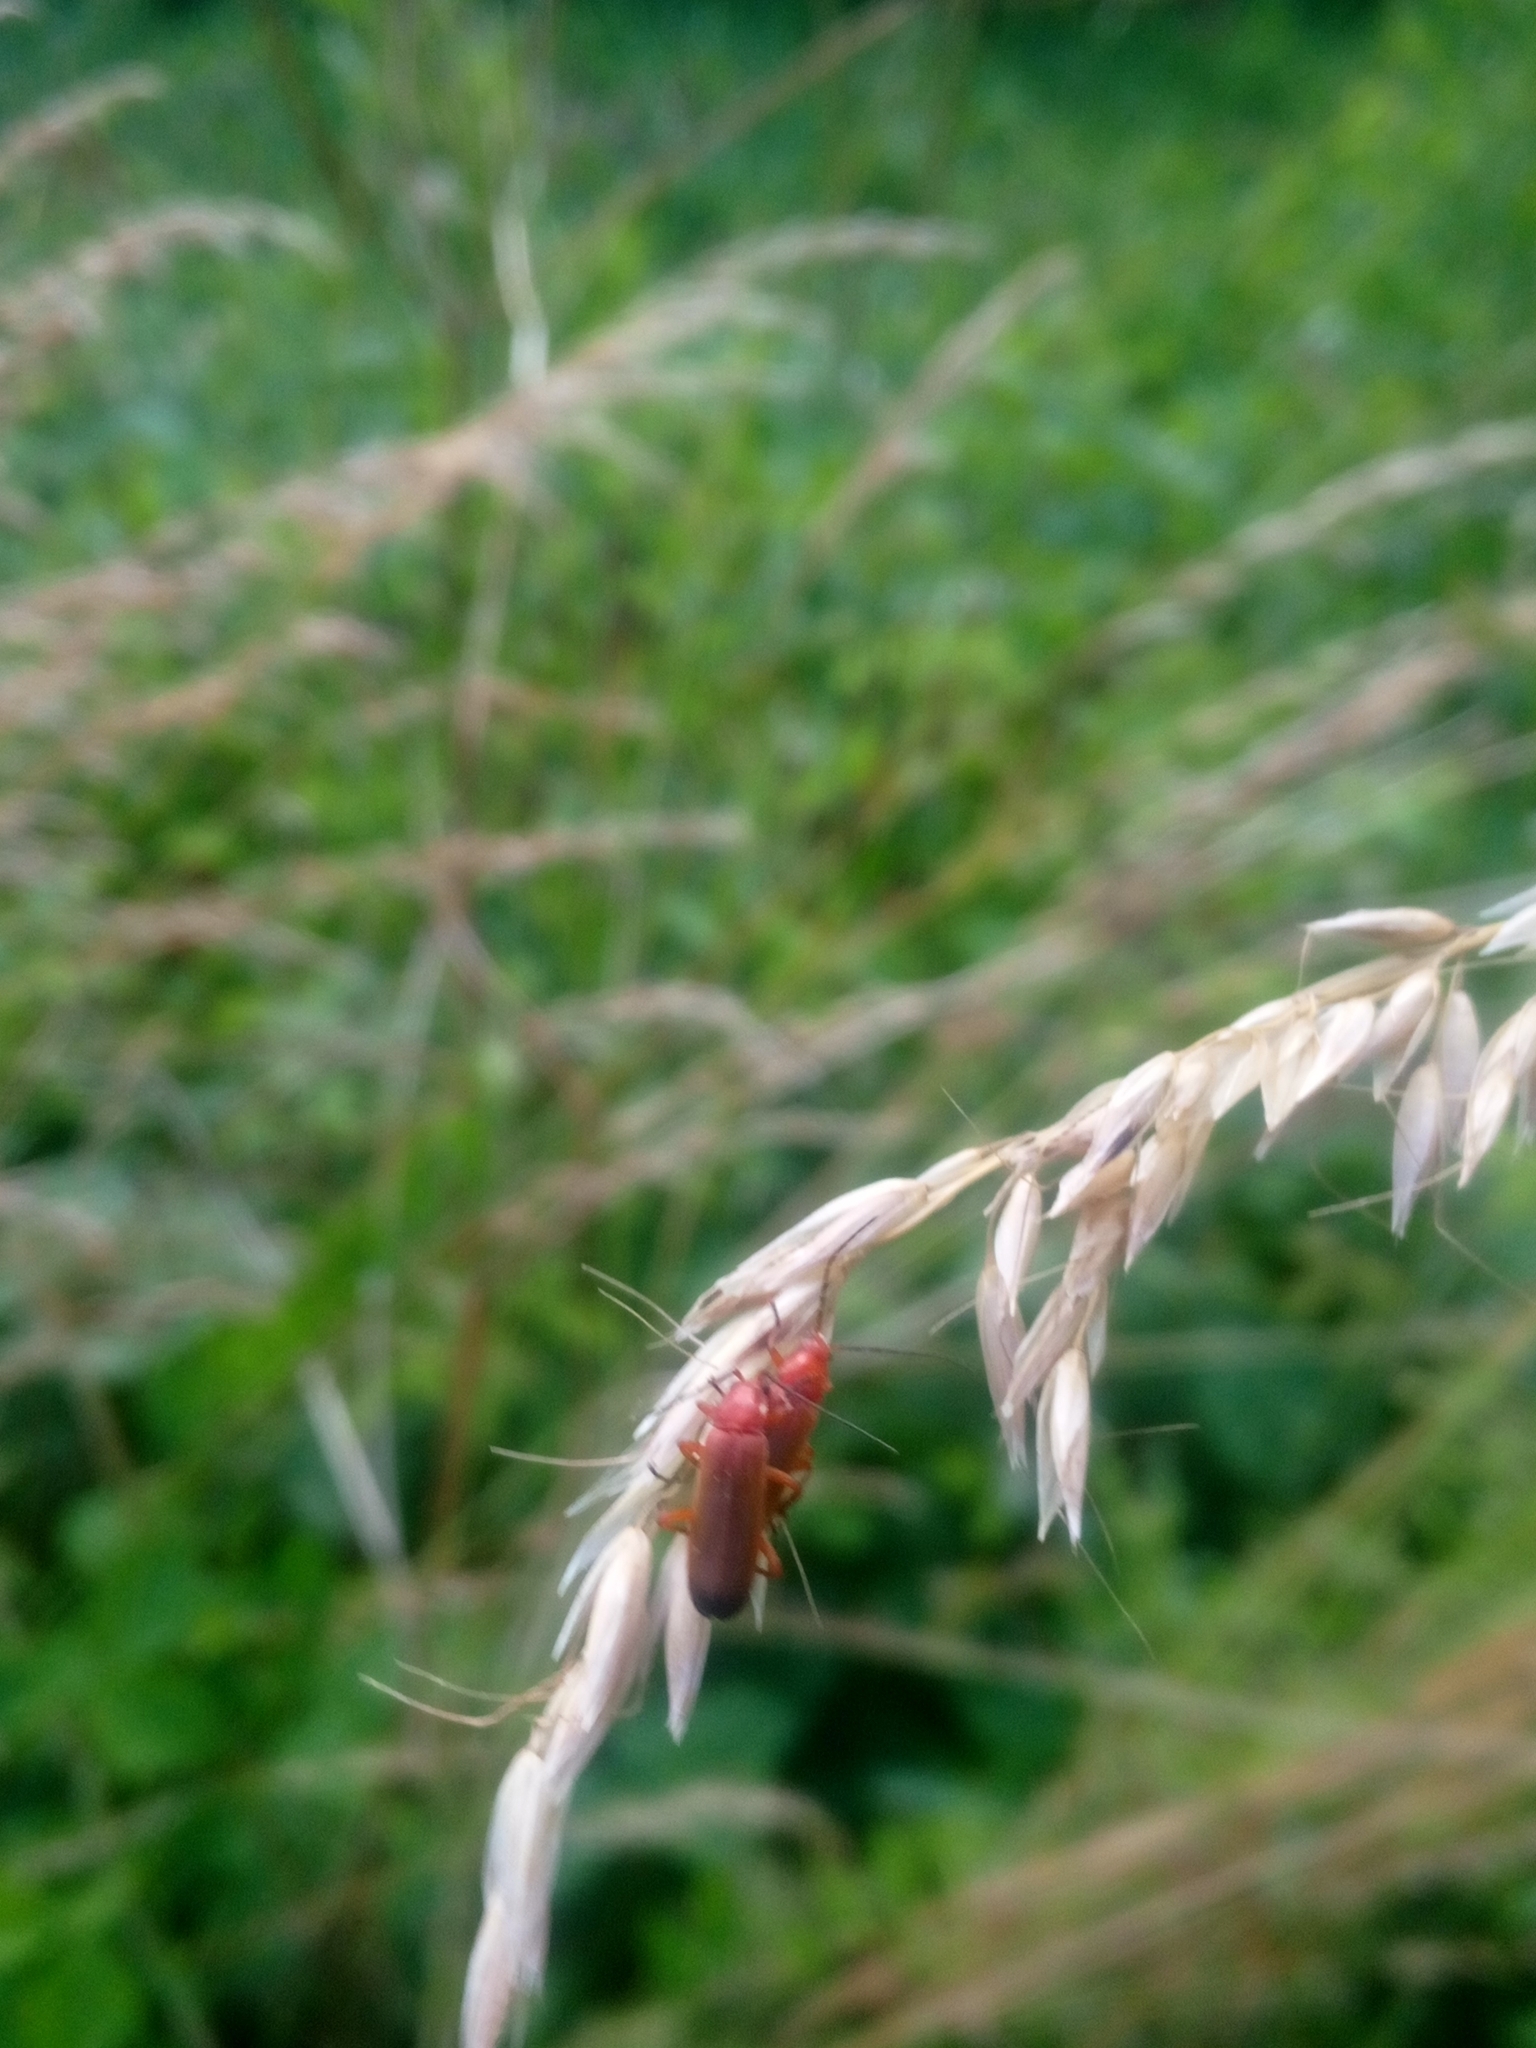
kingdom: Animalia
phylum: Arthropoda
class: Insecta
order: Coleoptera
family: Cantharidae
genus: Rhagonycha
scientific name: Rhagonycha fulva
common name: Common red soldier beetle
